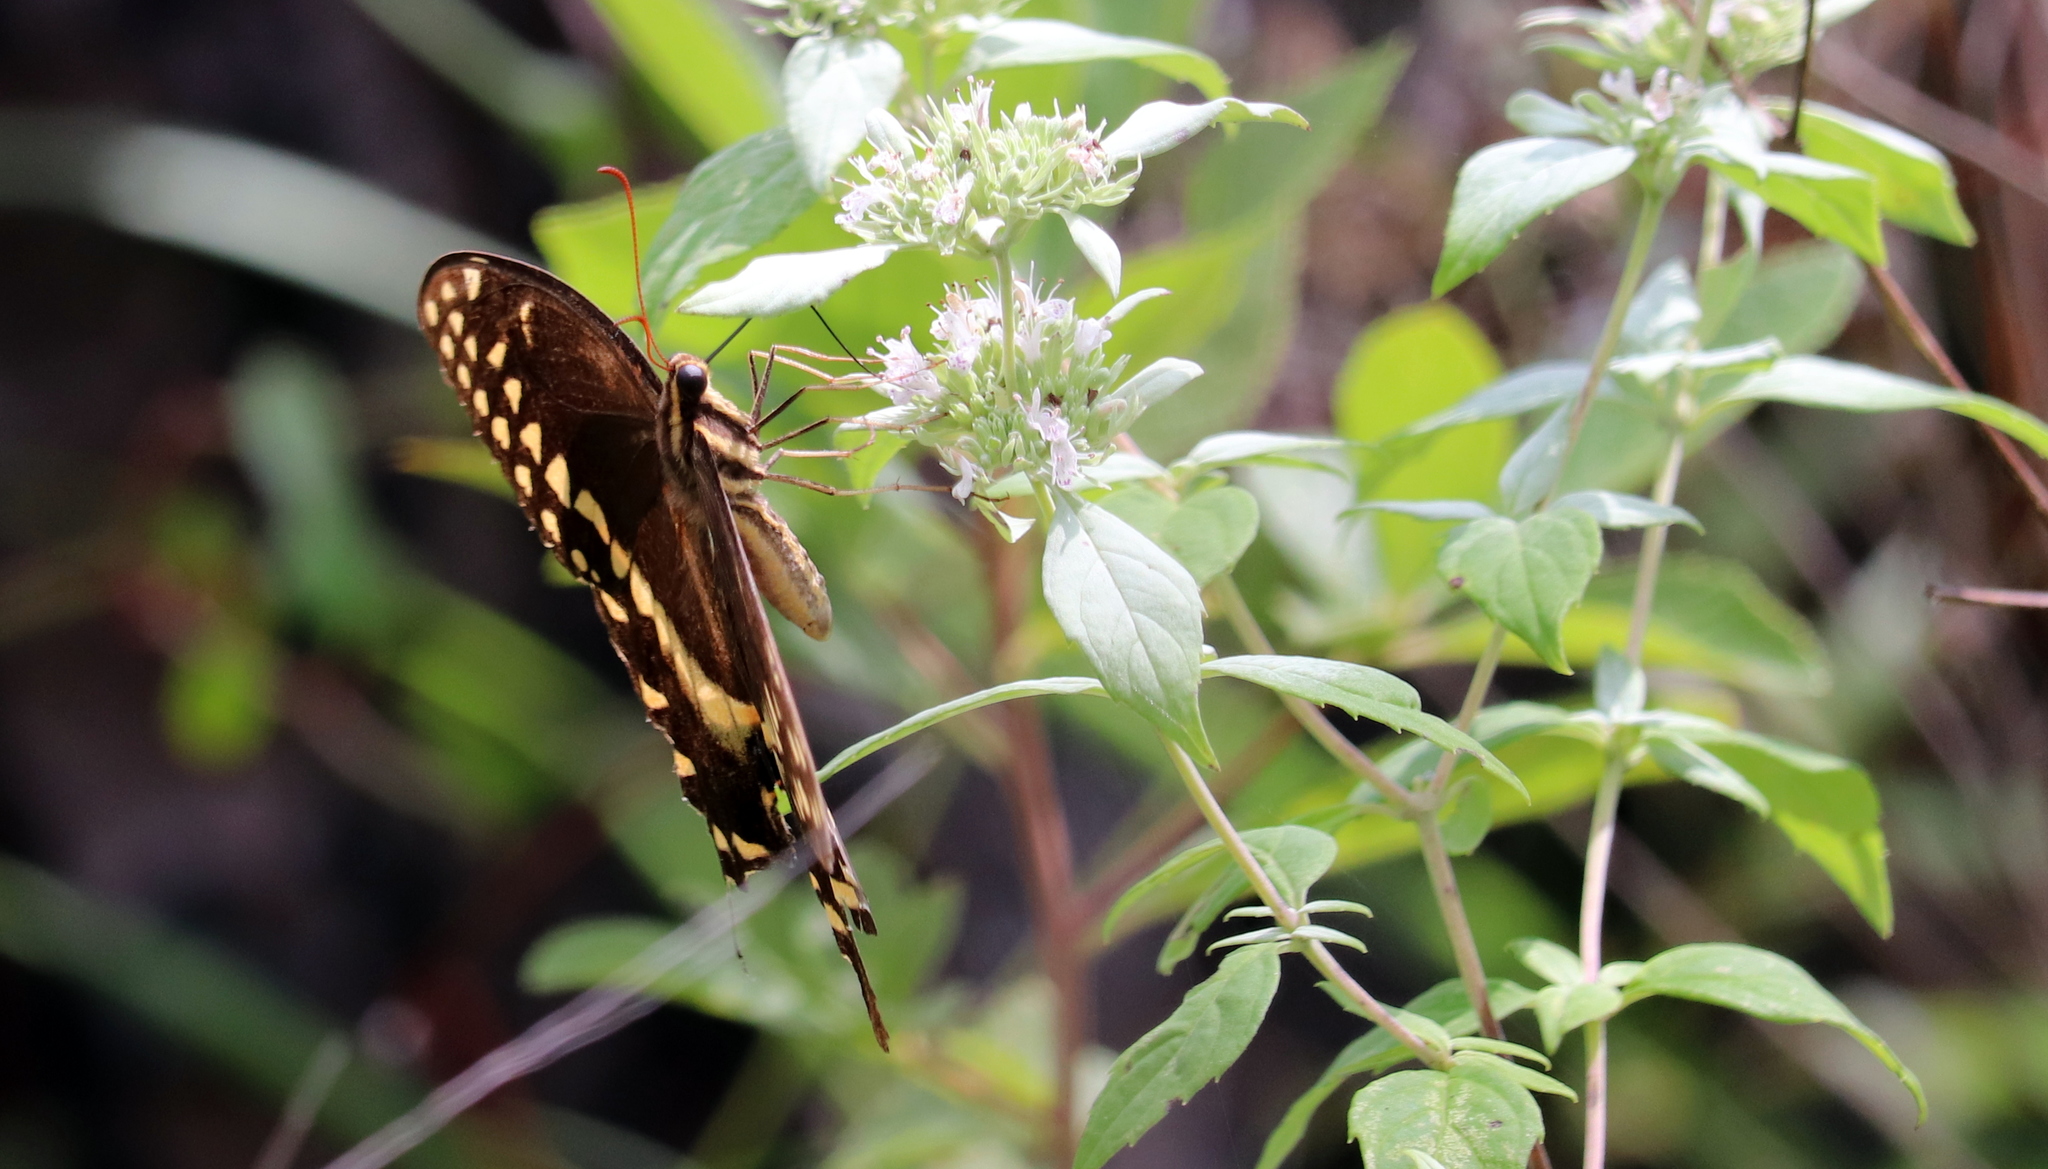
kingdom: Animalia
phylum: Arthropoda
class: Insecta
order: Lepidoptera
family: Papilionidae
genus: Papilio
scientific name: Papilio palamedes
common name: Palamedes swallowtail
